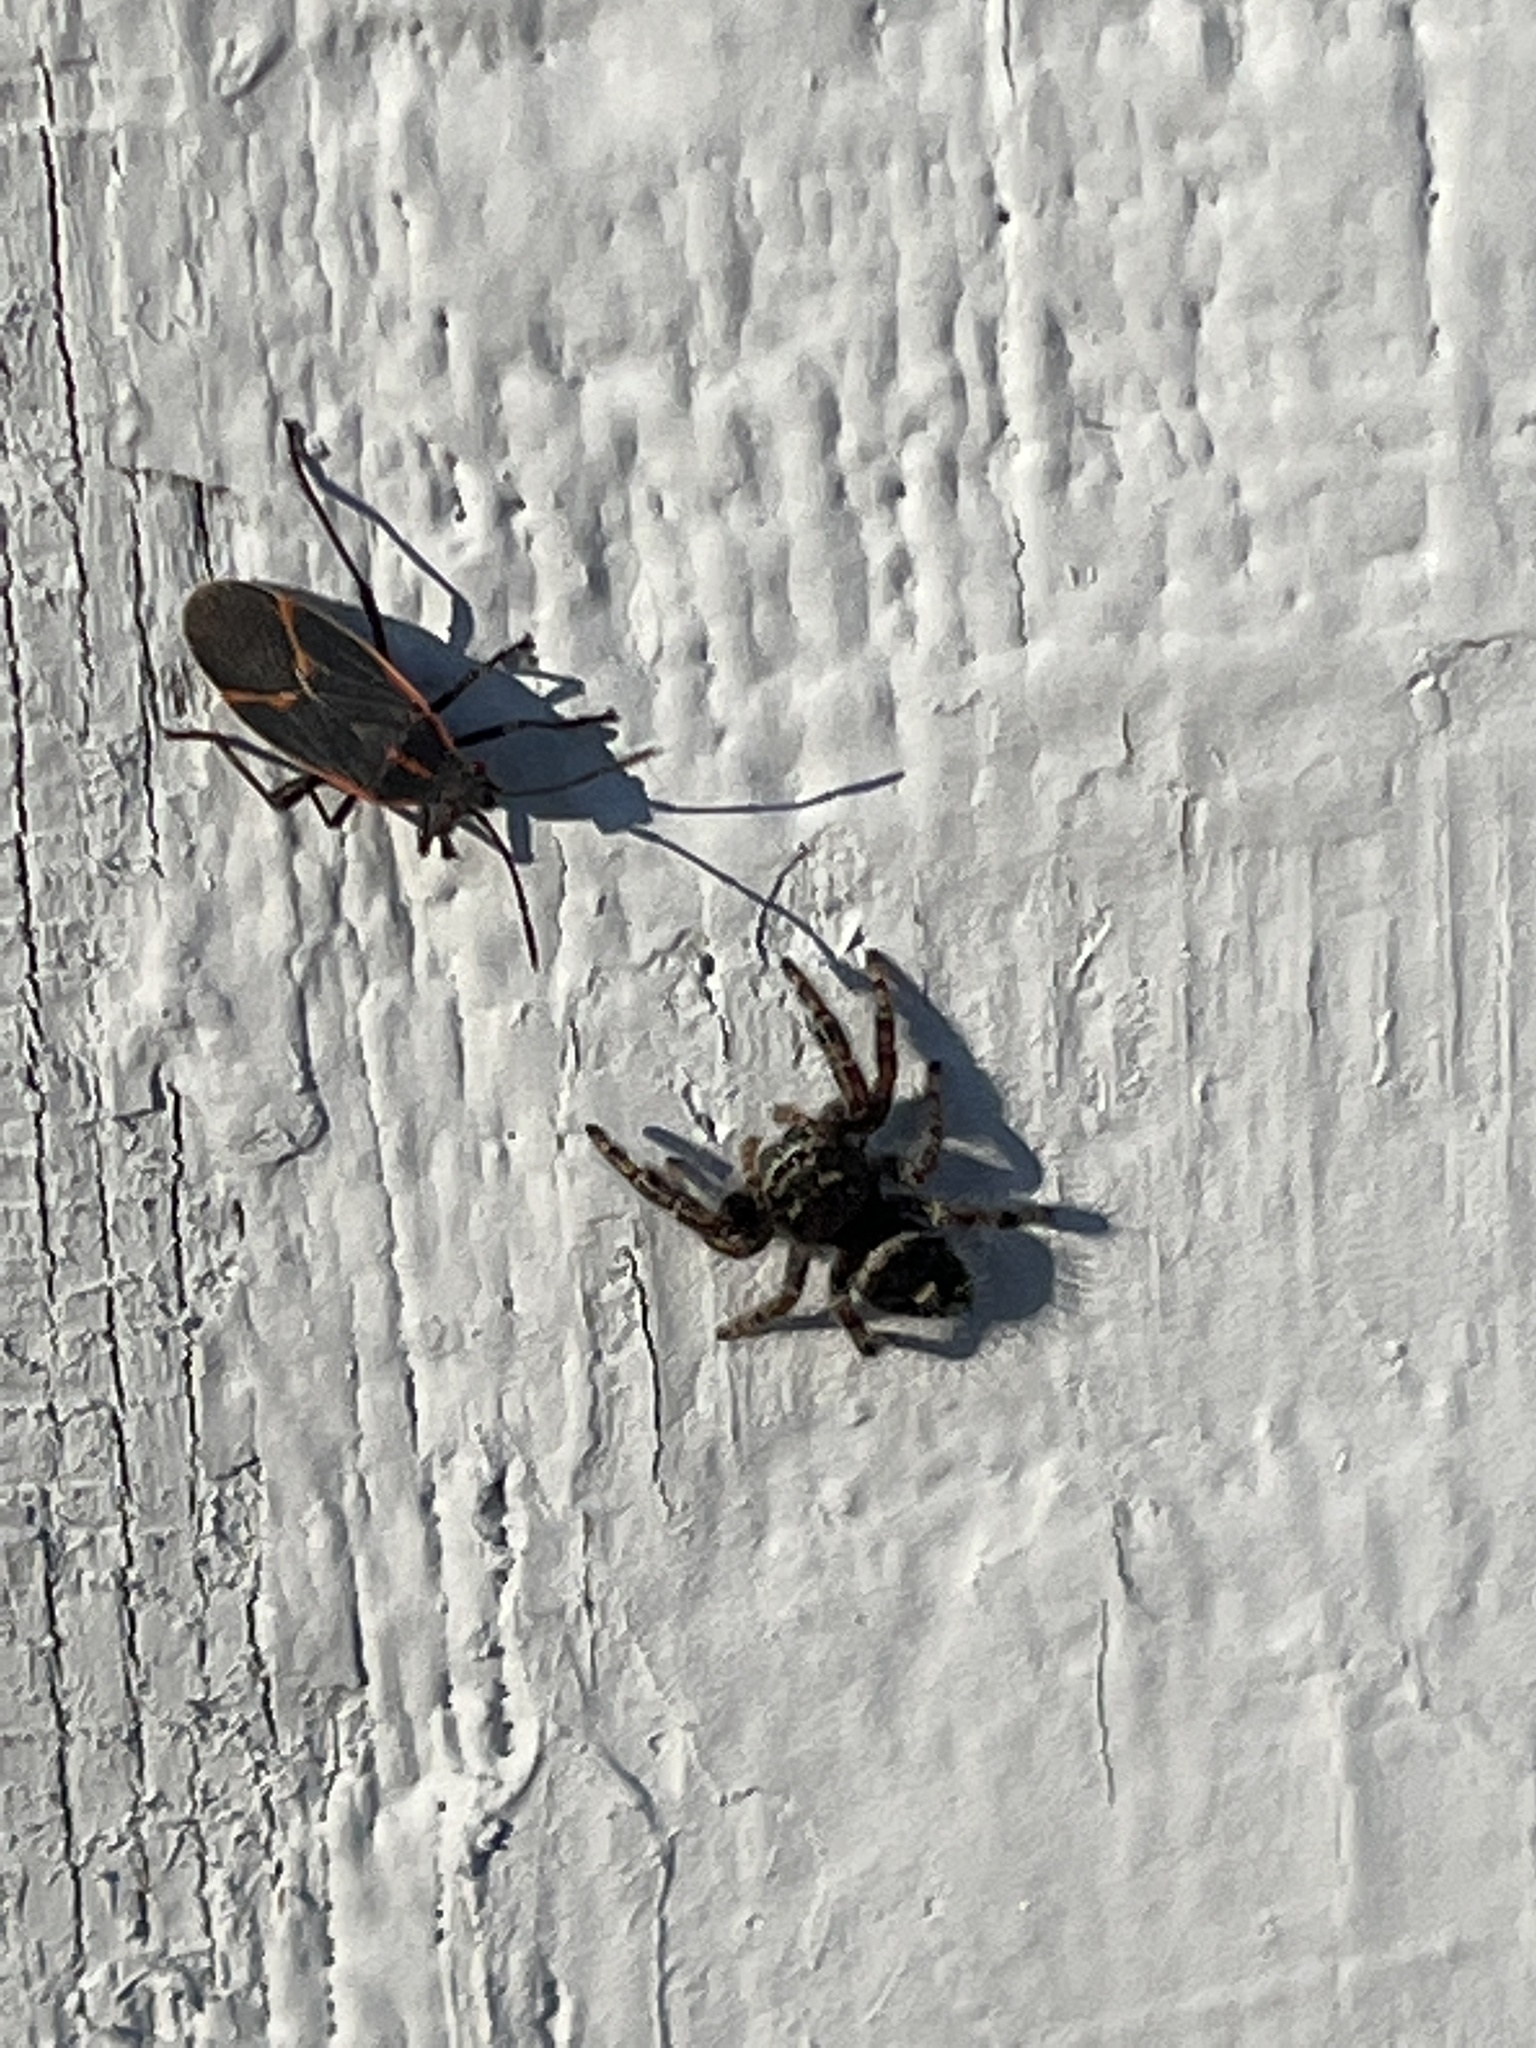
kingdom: Animalia
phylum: Arthropoda
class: Arachnida
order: Araneae
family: Salticidae
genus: Phidippus
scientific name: Phidippus audax
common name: Bold jumper
